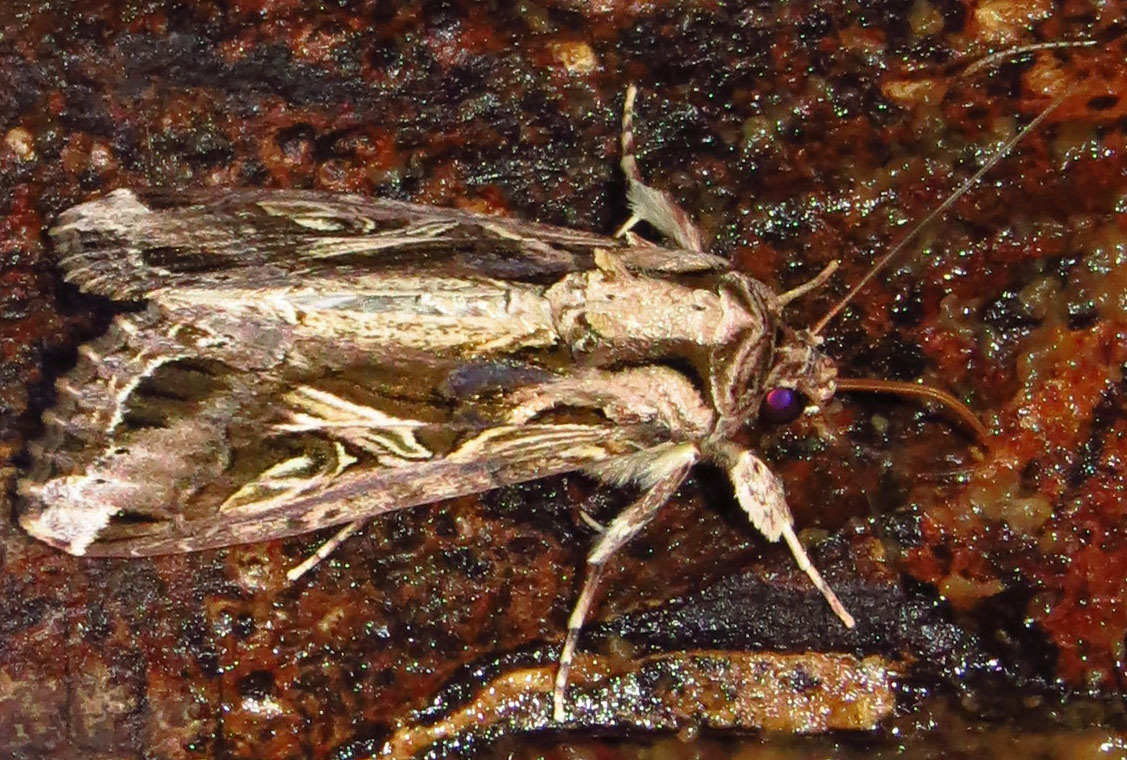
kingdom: Animalia
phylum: Arthropoda
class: Insecta
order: Lepidoptera
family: Noctuidae
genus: Spodoptera
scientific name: Spodoptera dolichos
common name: Sweetpotato armyworm
